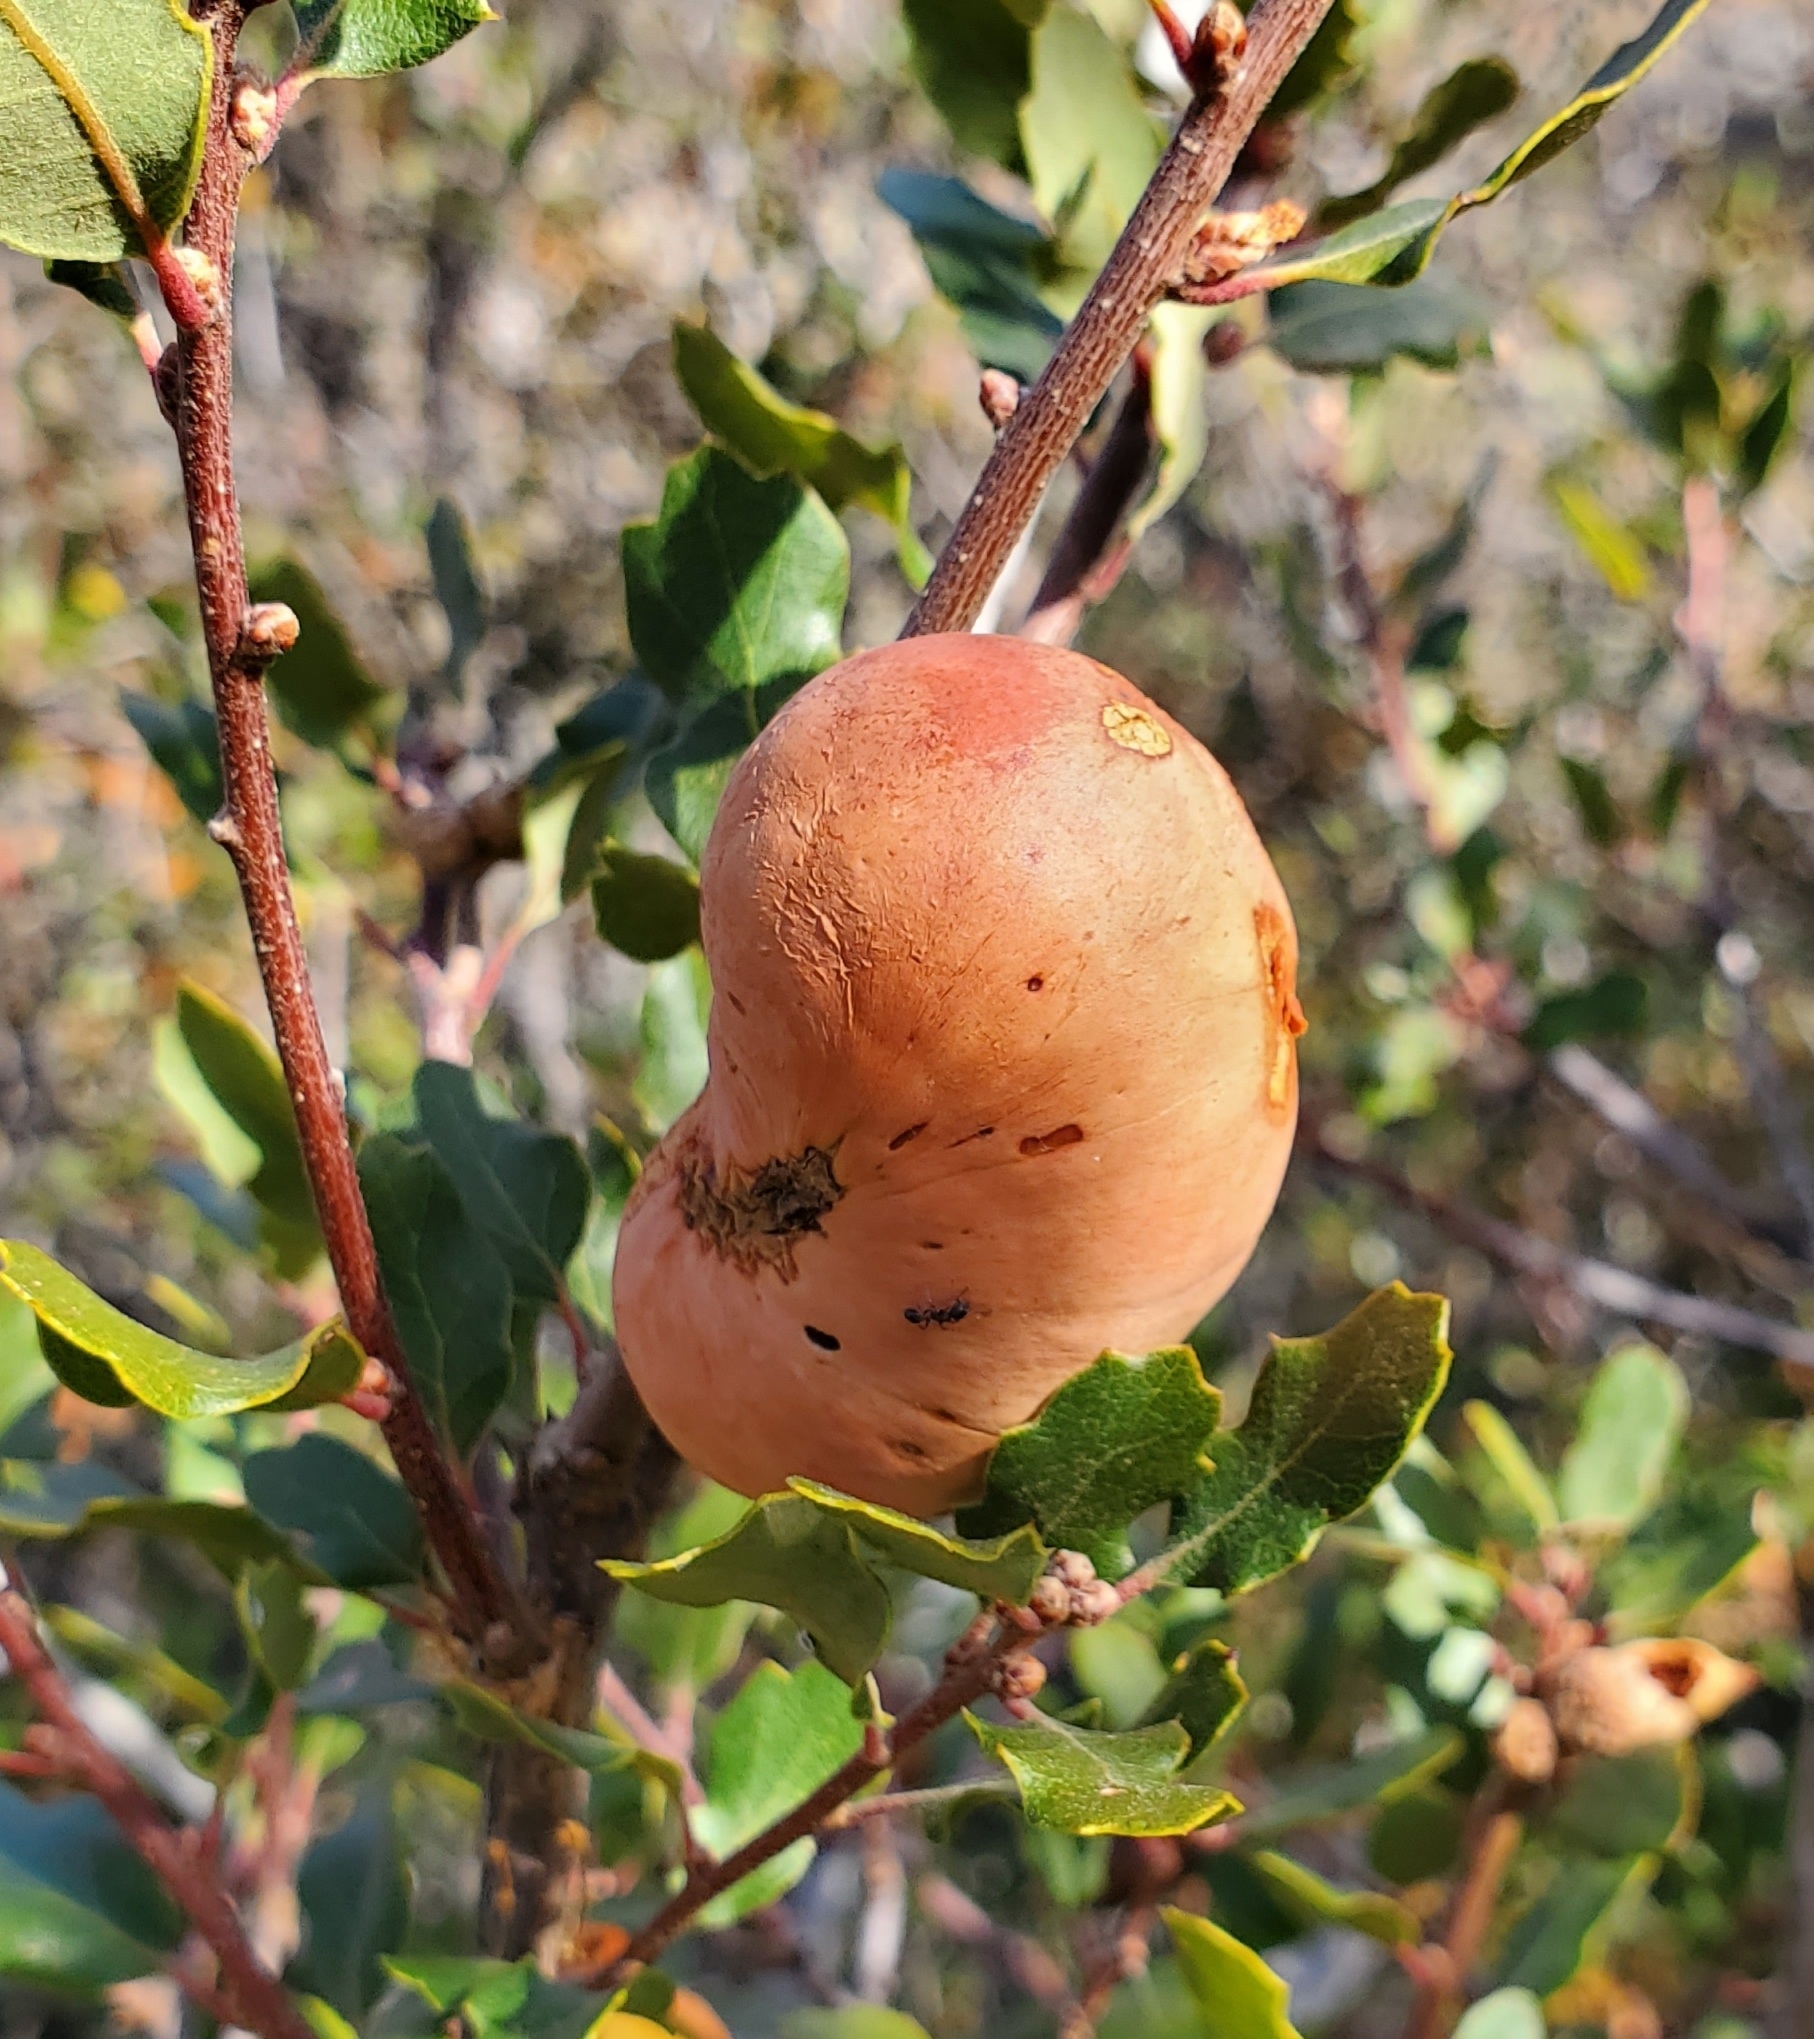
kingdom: Animalia
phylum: Arthropoda
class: Insecta
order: Hymenoptera
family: Cynipidae
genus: Andricus
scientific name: Andricus quercuscalifornicus
